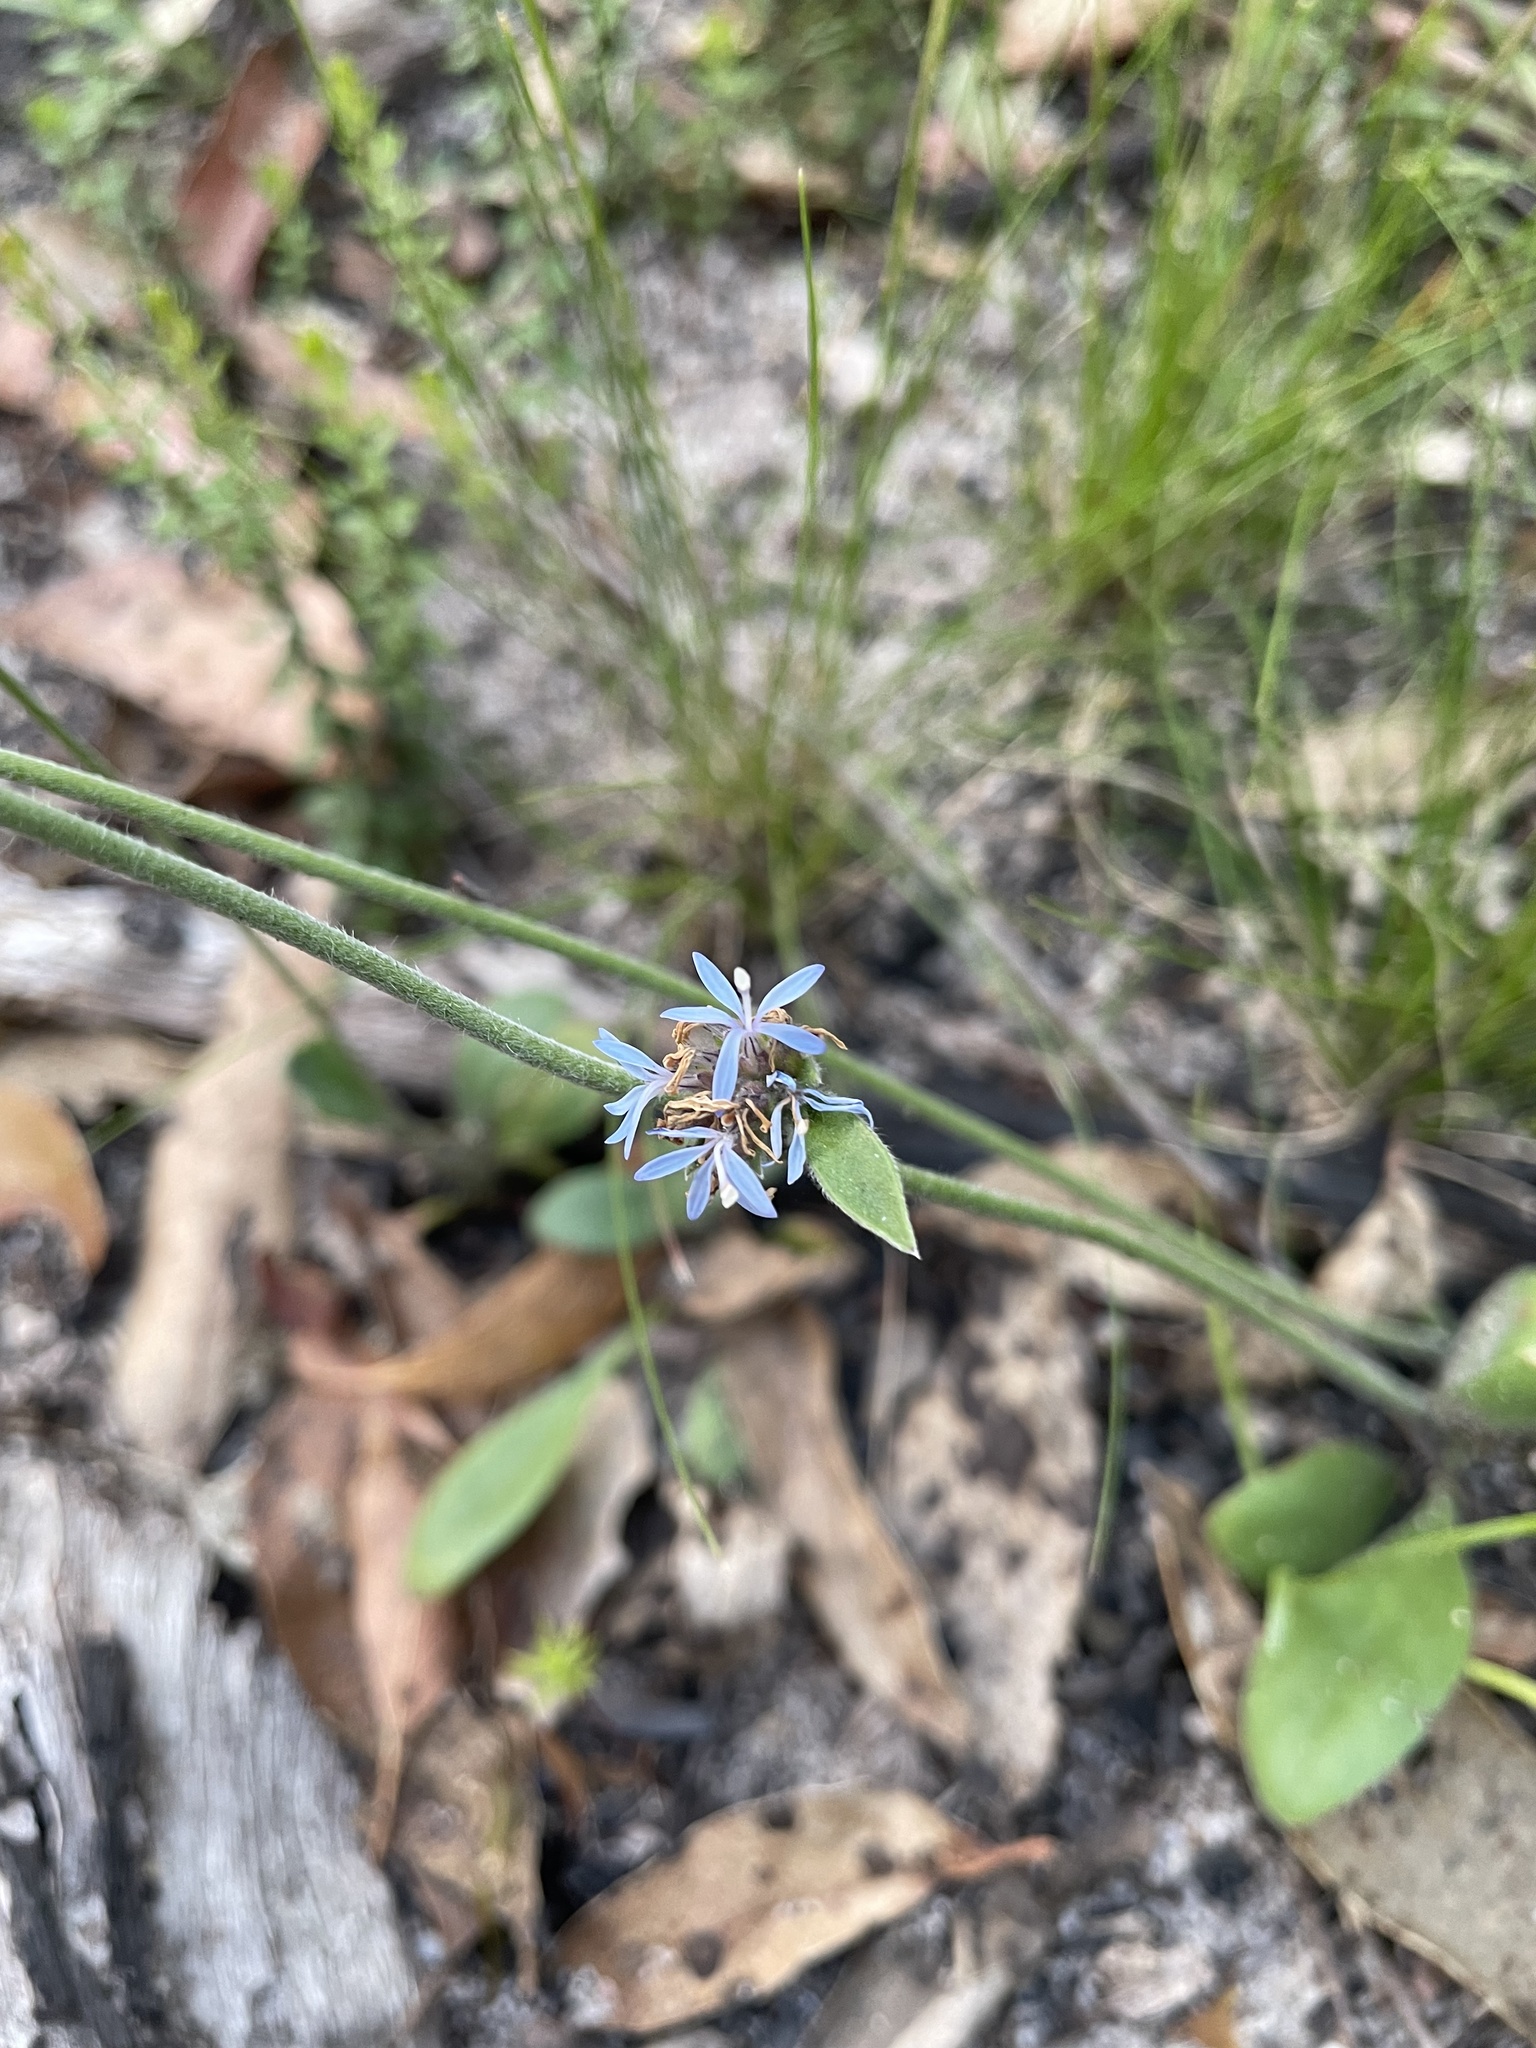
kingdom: Plantae
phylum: Tracheophyta
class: Magnoliopsida
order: Asterales
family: Goodeniaceae
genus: Brunonia
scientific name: Brunonia australis
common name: Blue pincushion
